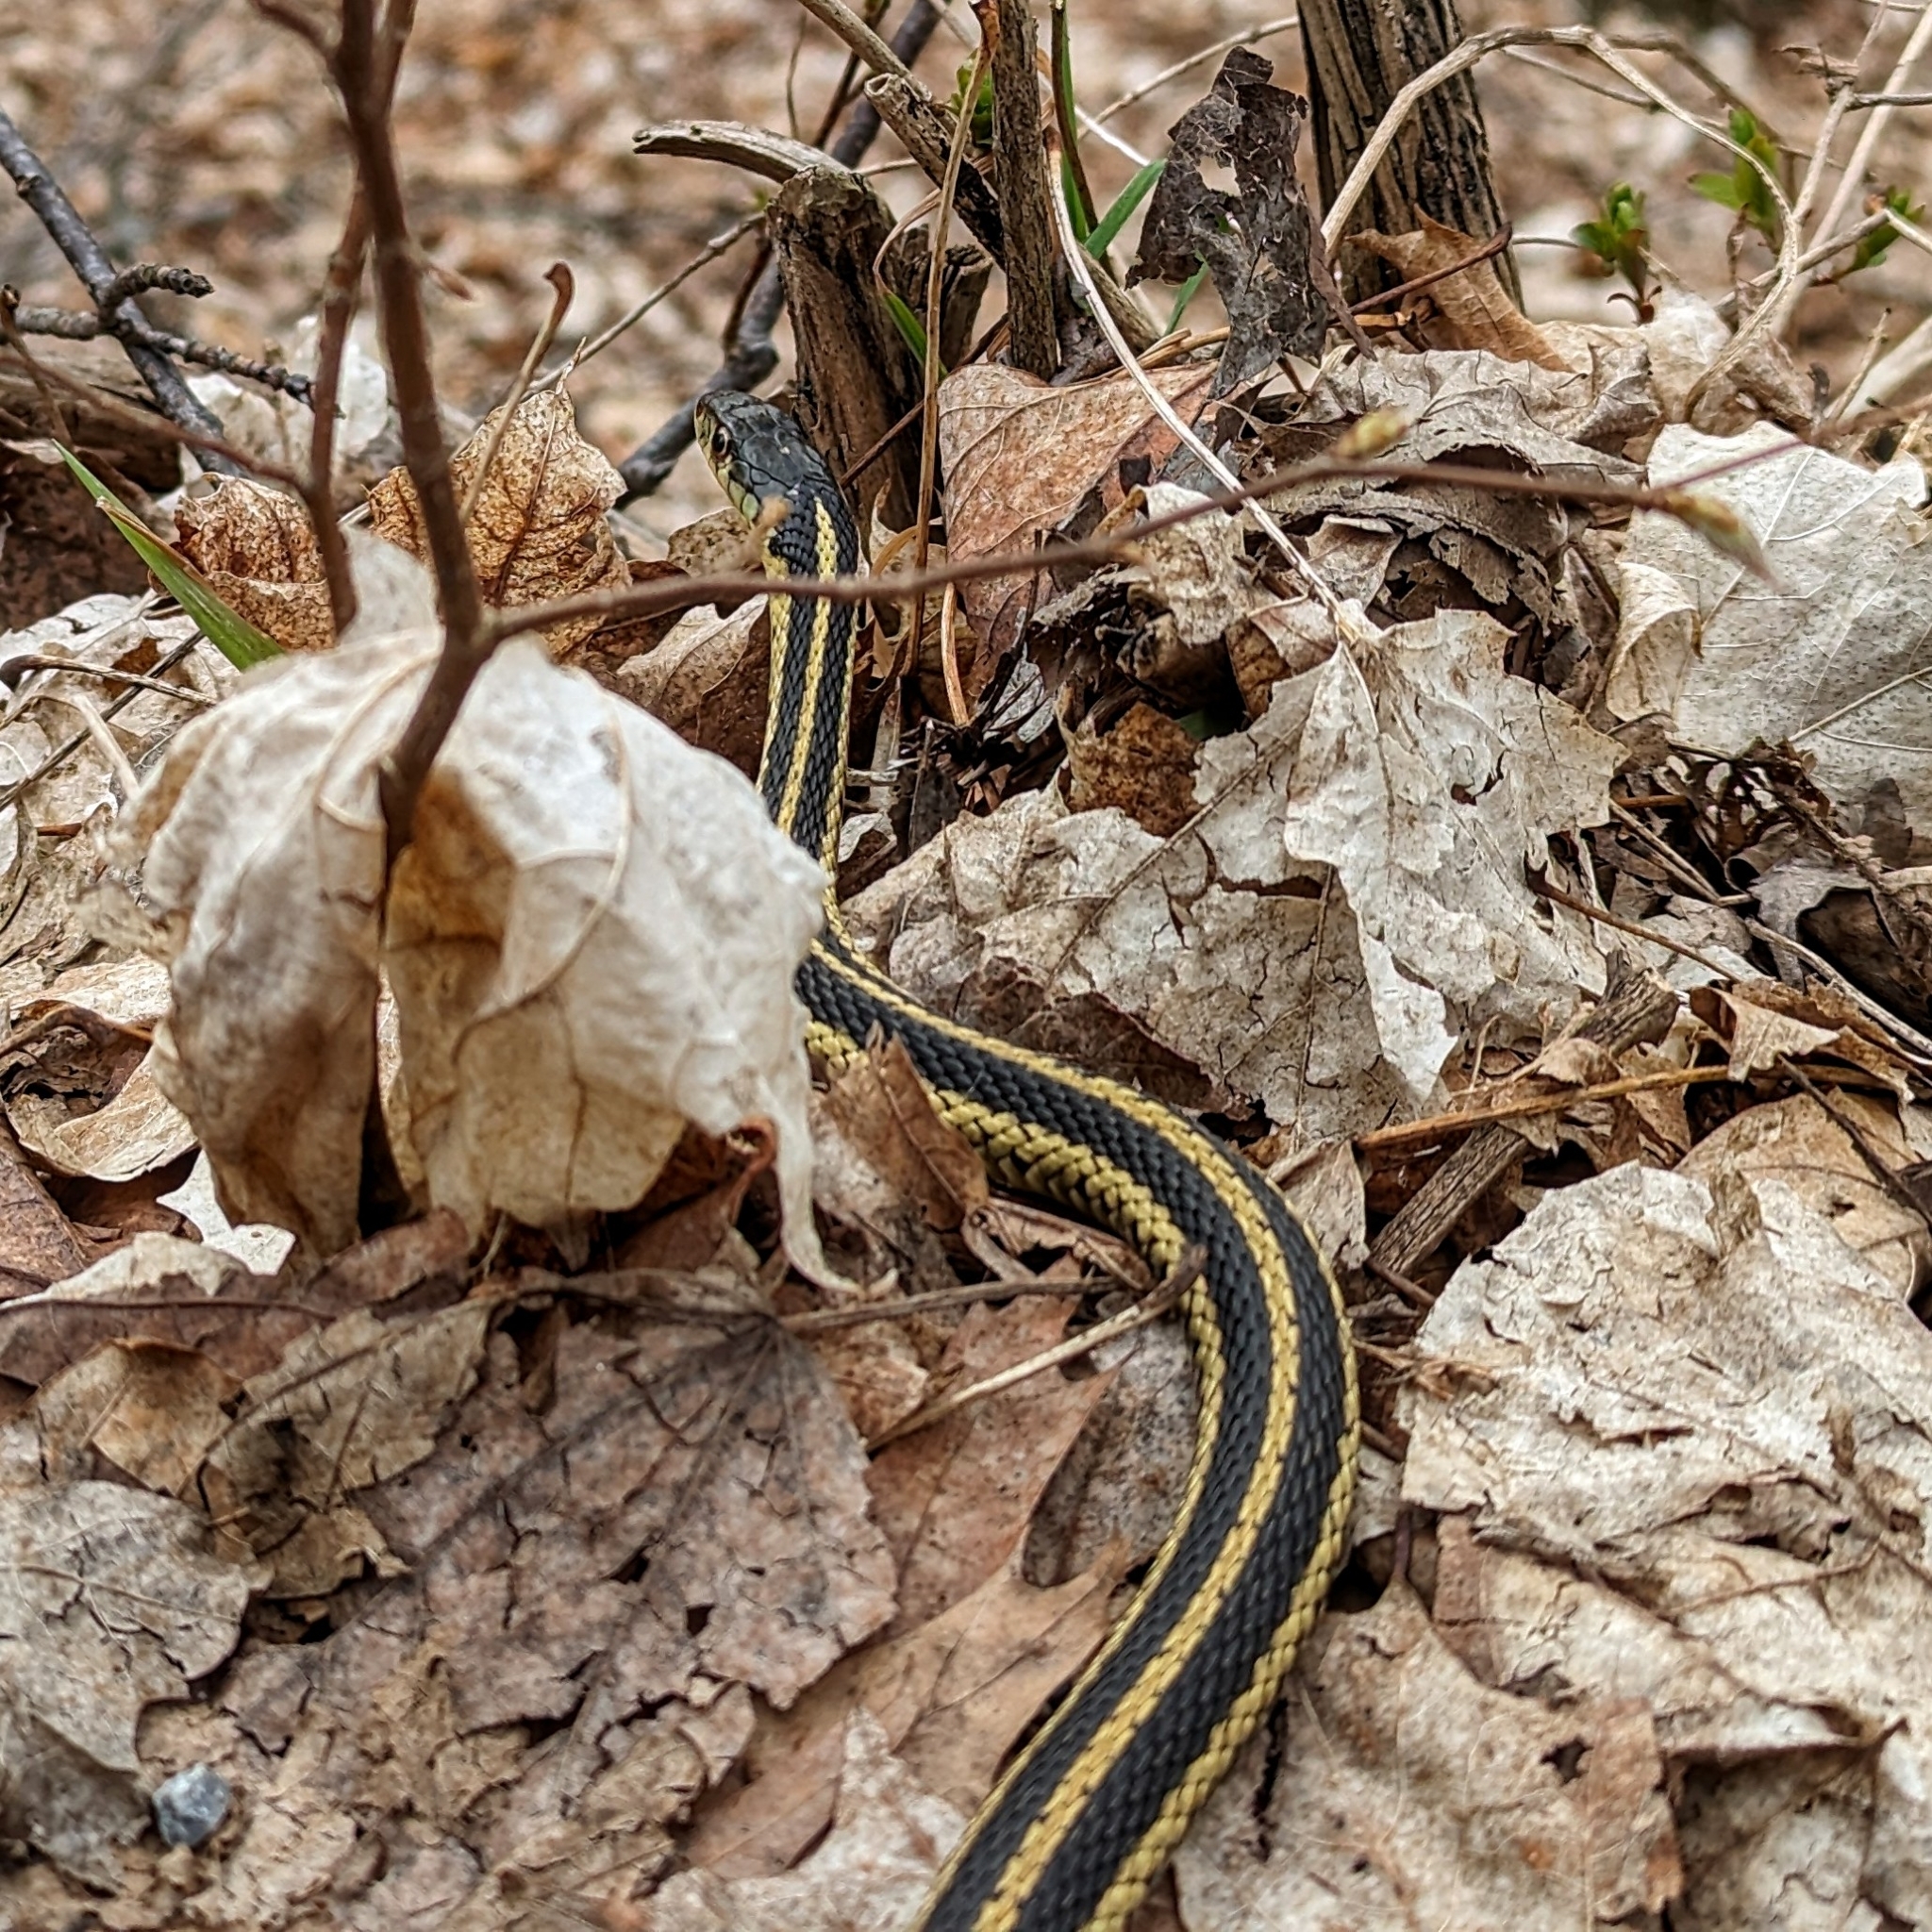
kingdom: Animalia
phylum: Chordata
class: Squamata
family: Colubridae
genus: Thamnophis
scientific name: Thamnophis sirtalis
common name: Common garter snake
